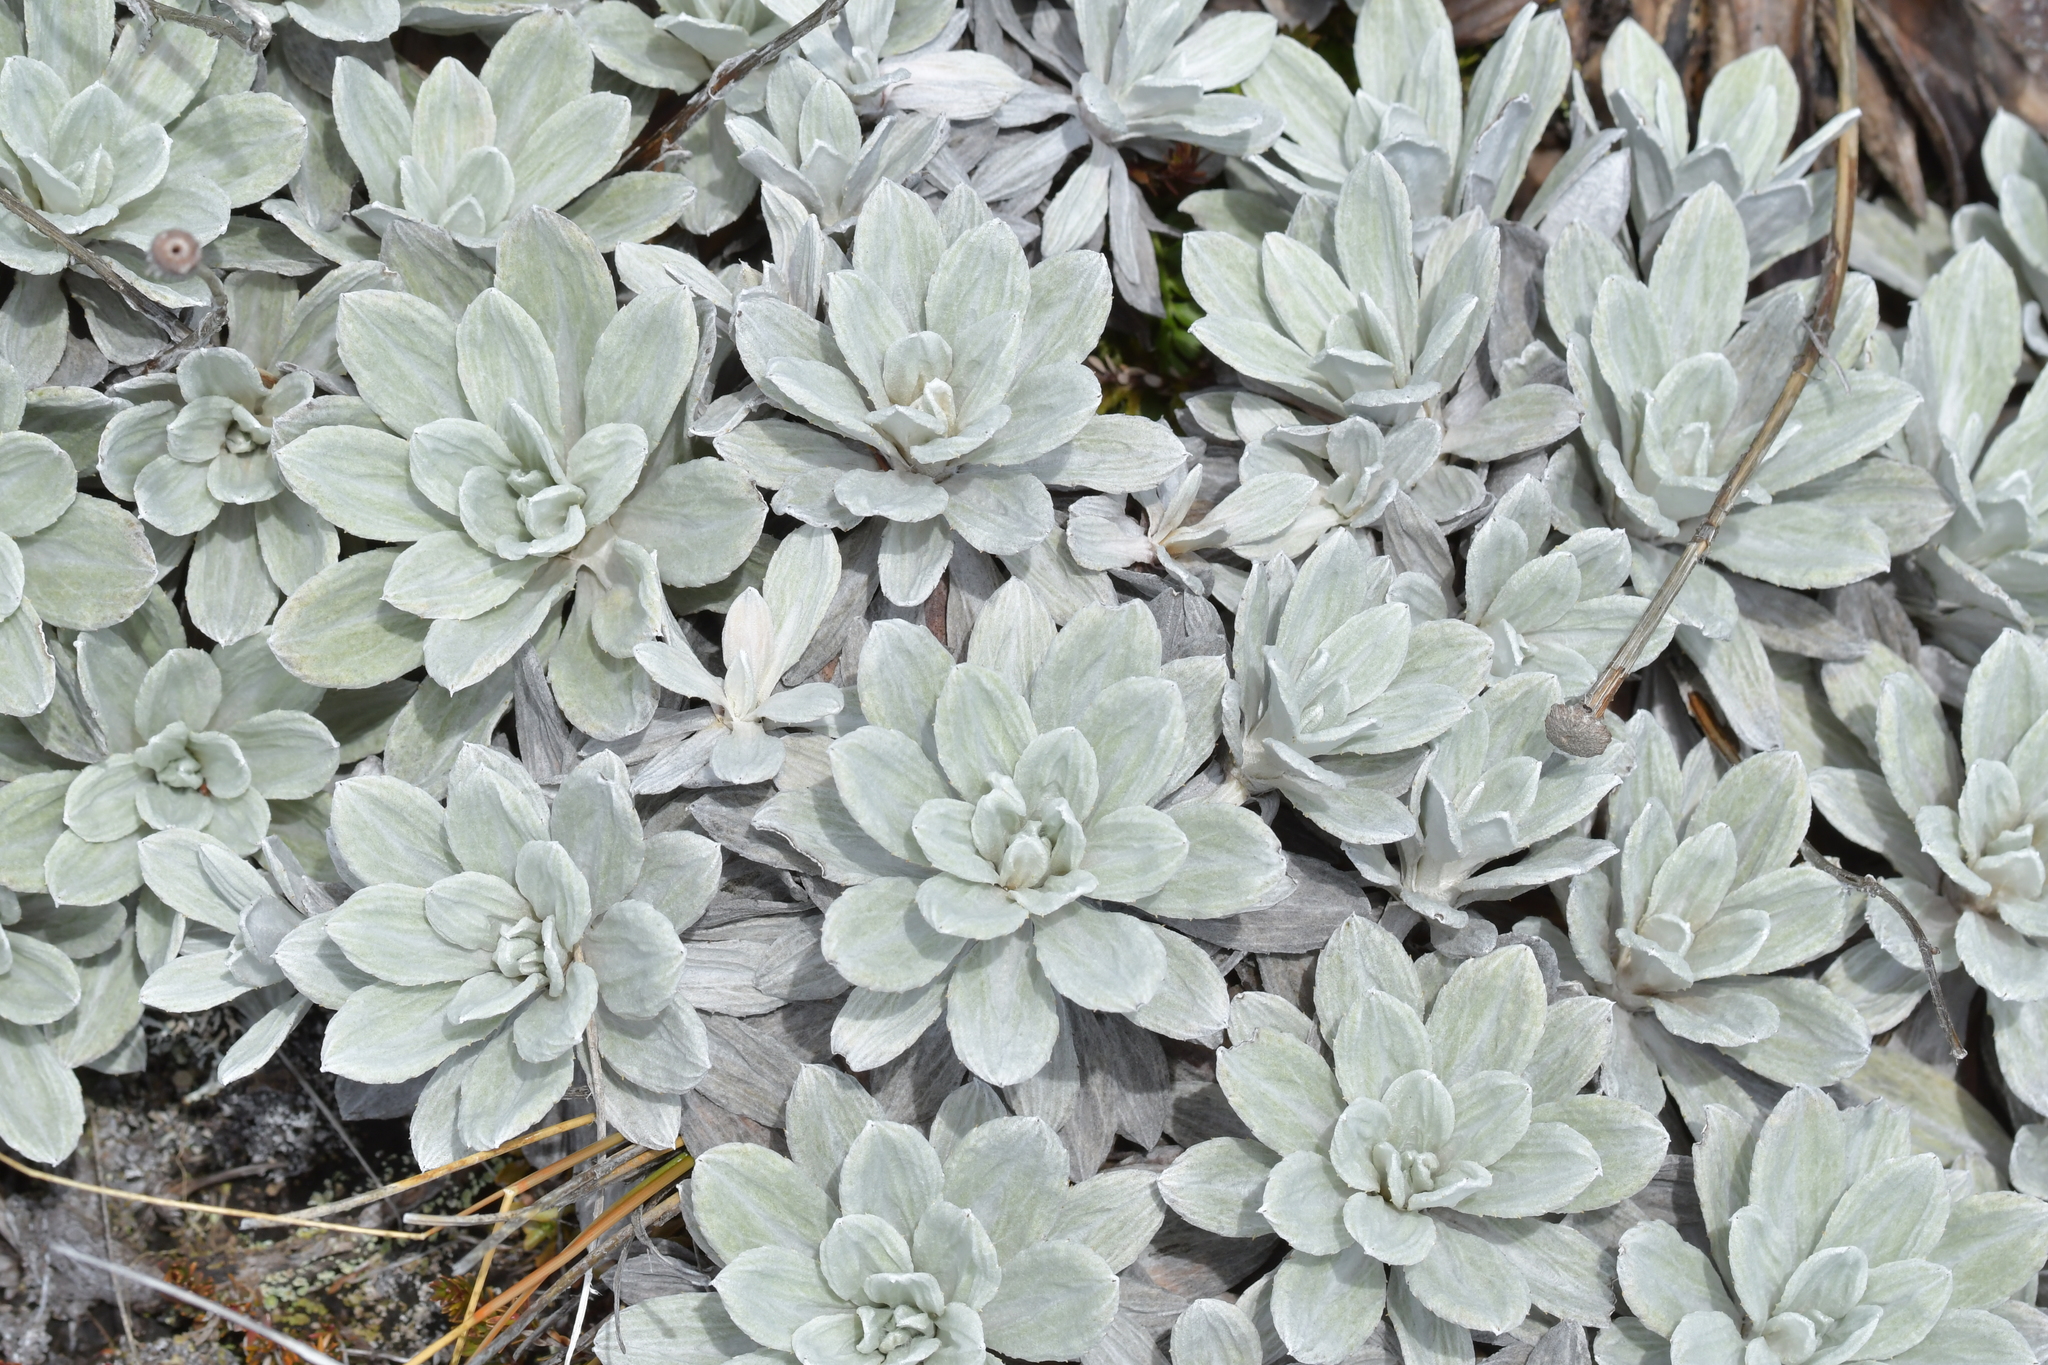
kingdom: Plantae
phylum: Tracheophyta
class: Magnoliopsida
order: Asterales
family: Asteraceae
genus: Celmisia
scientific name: Celmisia incana
